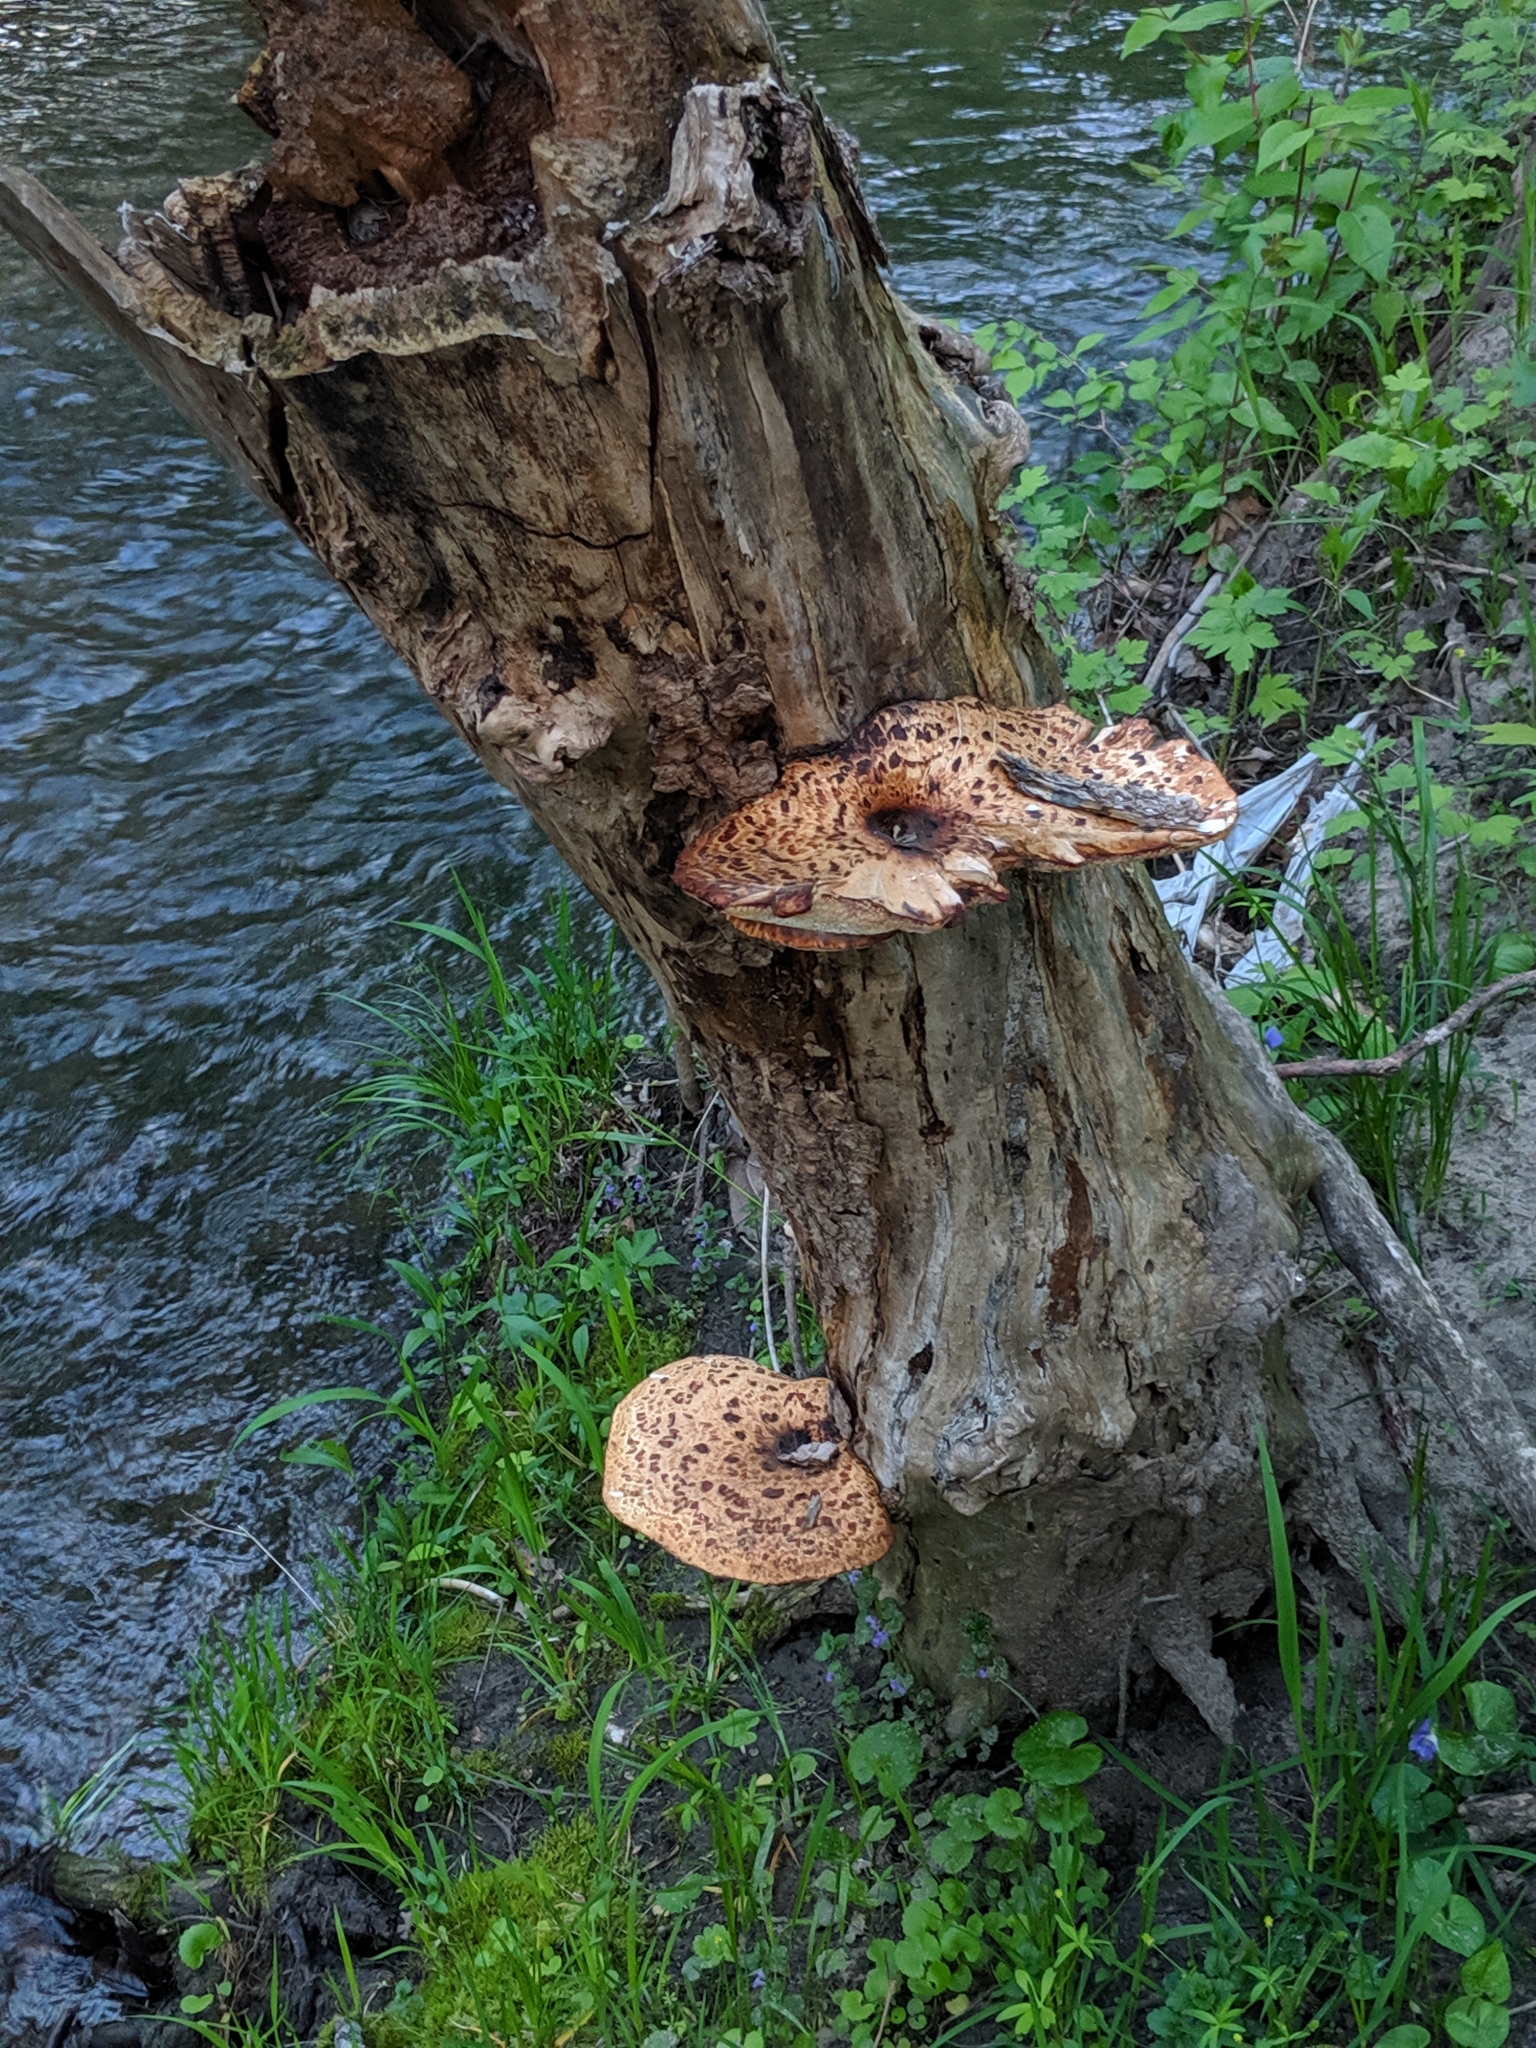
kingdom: Fungi
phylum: Basidiomycota
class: Agaricomycetes
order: Polyporales
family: Polyporaceae
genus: Cerioporus
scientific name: Cerioporus squamosus
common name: Dryad's saddle
